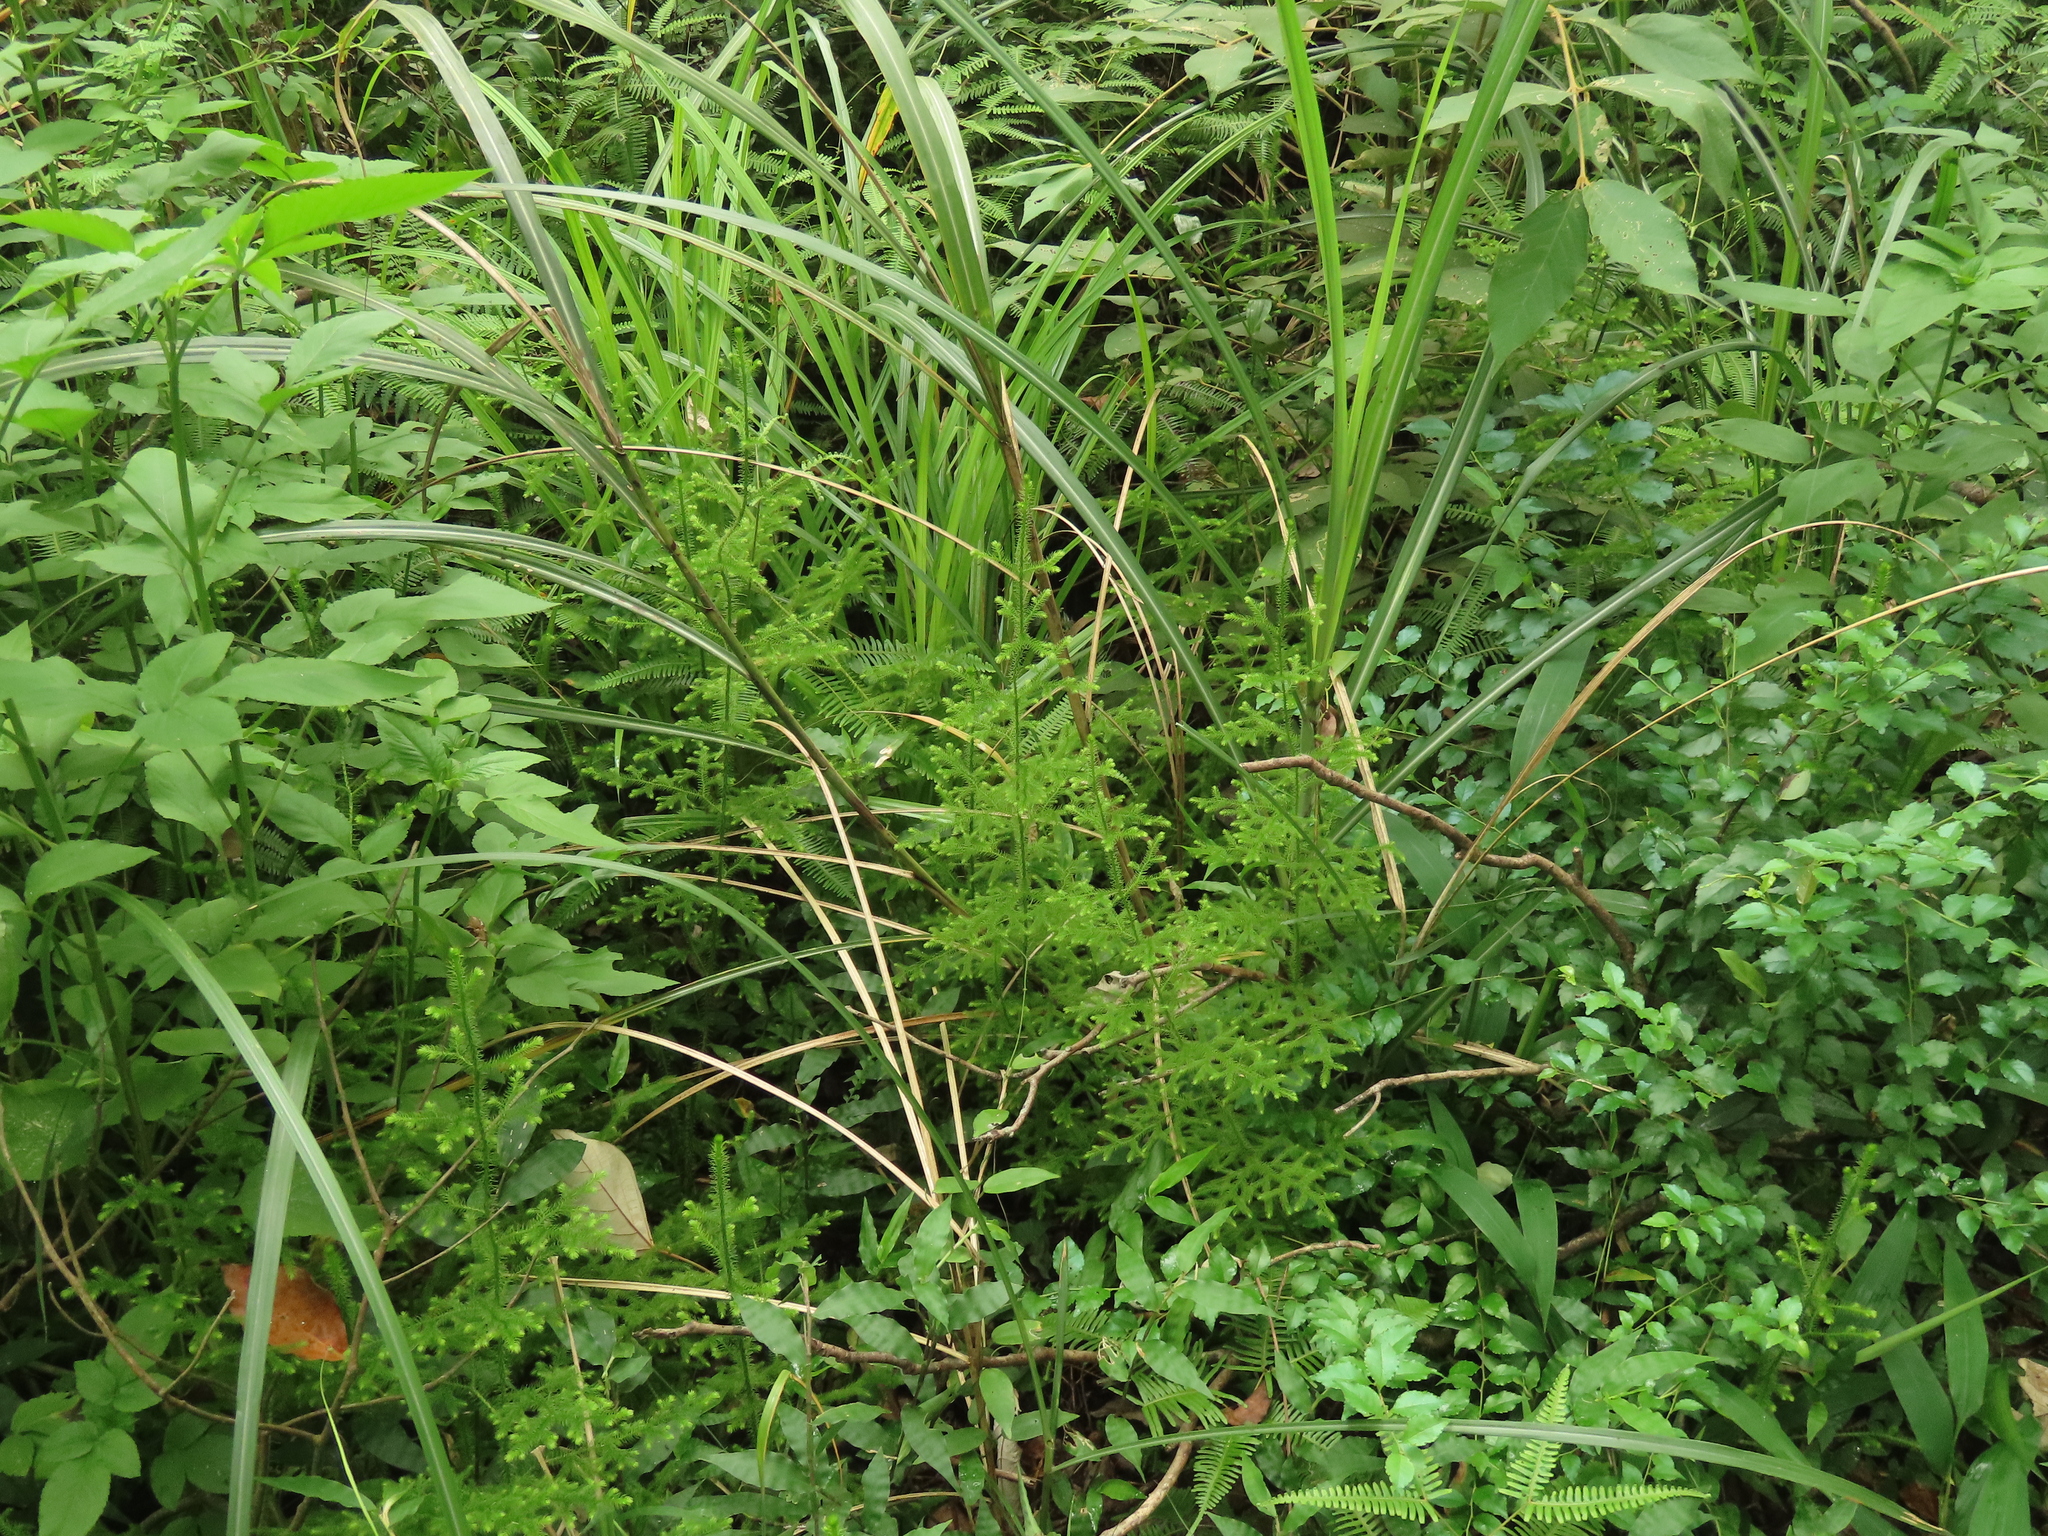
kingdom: Plantae
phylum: Tracheophyta
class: Lycopodiopsida
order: Lycopodiales
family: Lycopodiaceae
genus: Palhinhaea
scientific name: Palhinhaea cernua
